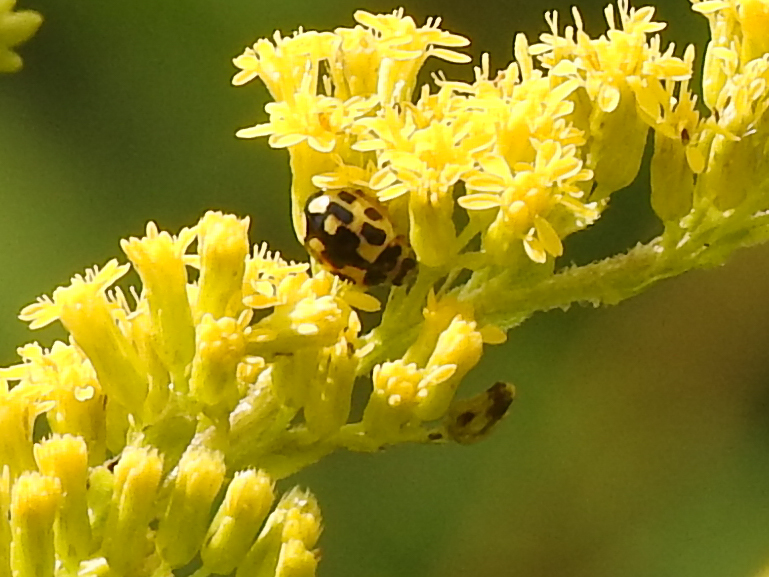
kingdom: Animalia
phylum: Arthropoda
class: Insecta
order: Coleoptera
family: Coccinellidae
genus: Propylaea
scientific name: Propylaea quatuordecimpunctata
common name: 14-spotted ladybird beetle
